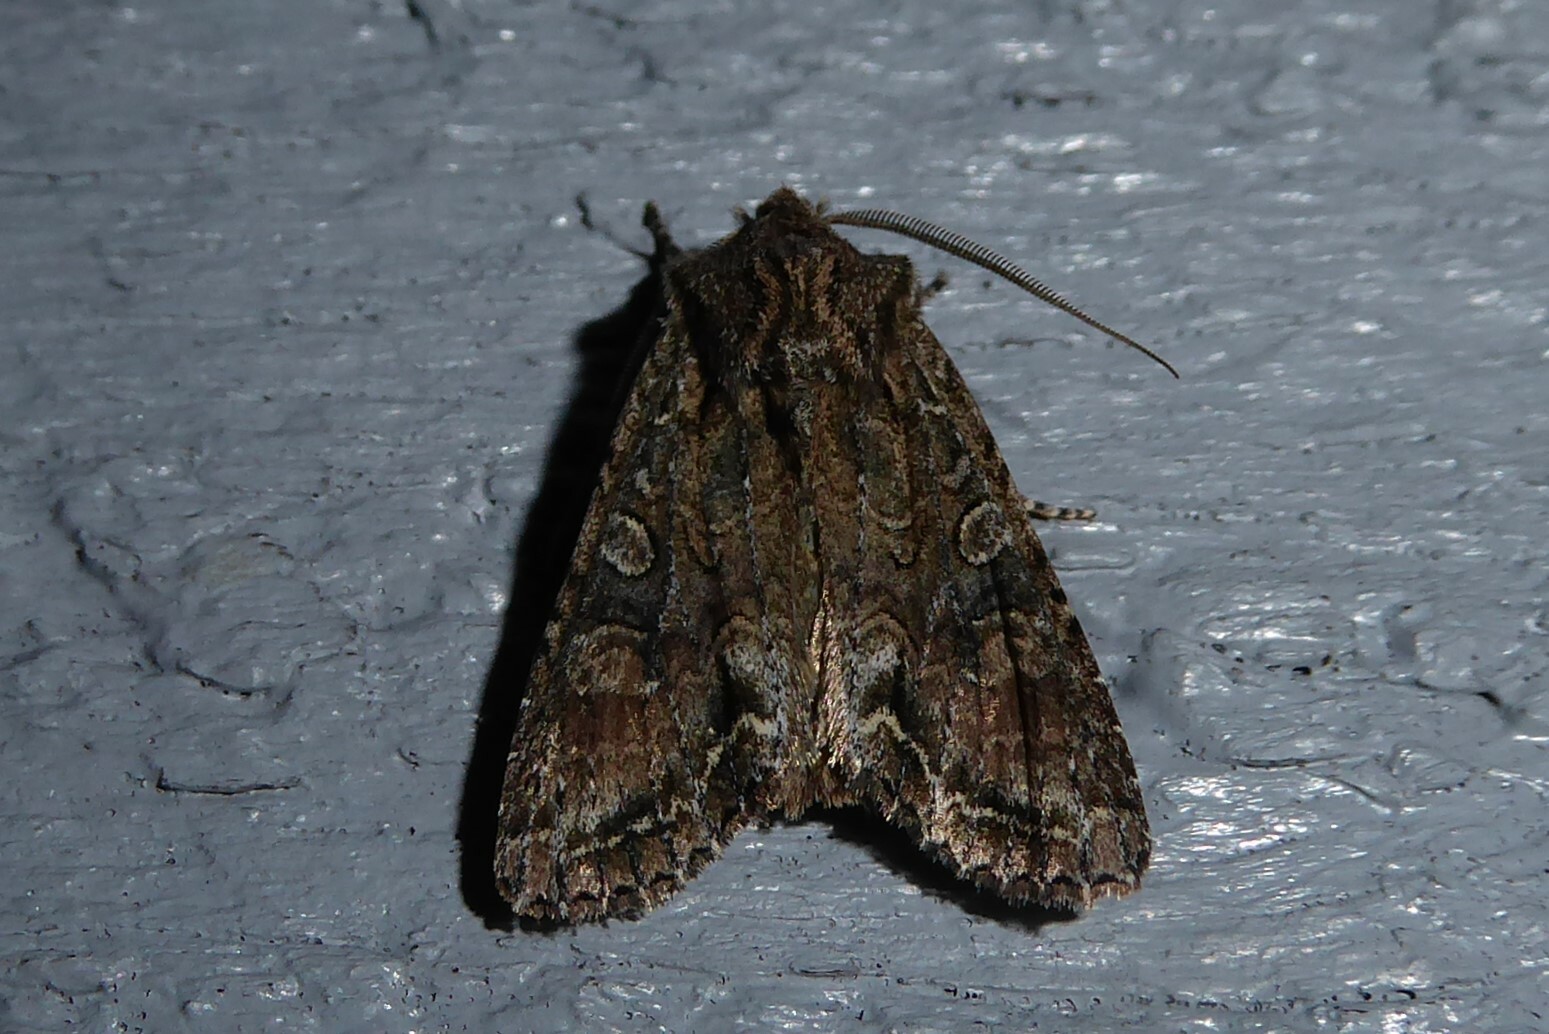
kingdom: Animalia
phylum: Arthropoda
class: Insecta
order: Lepidoptera
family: Noctuidae
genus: Ichneutica
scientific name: Ichneutica mutans
